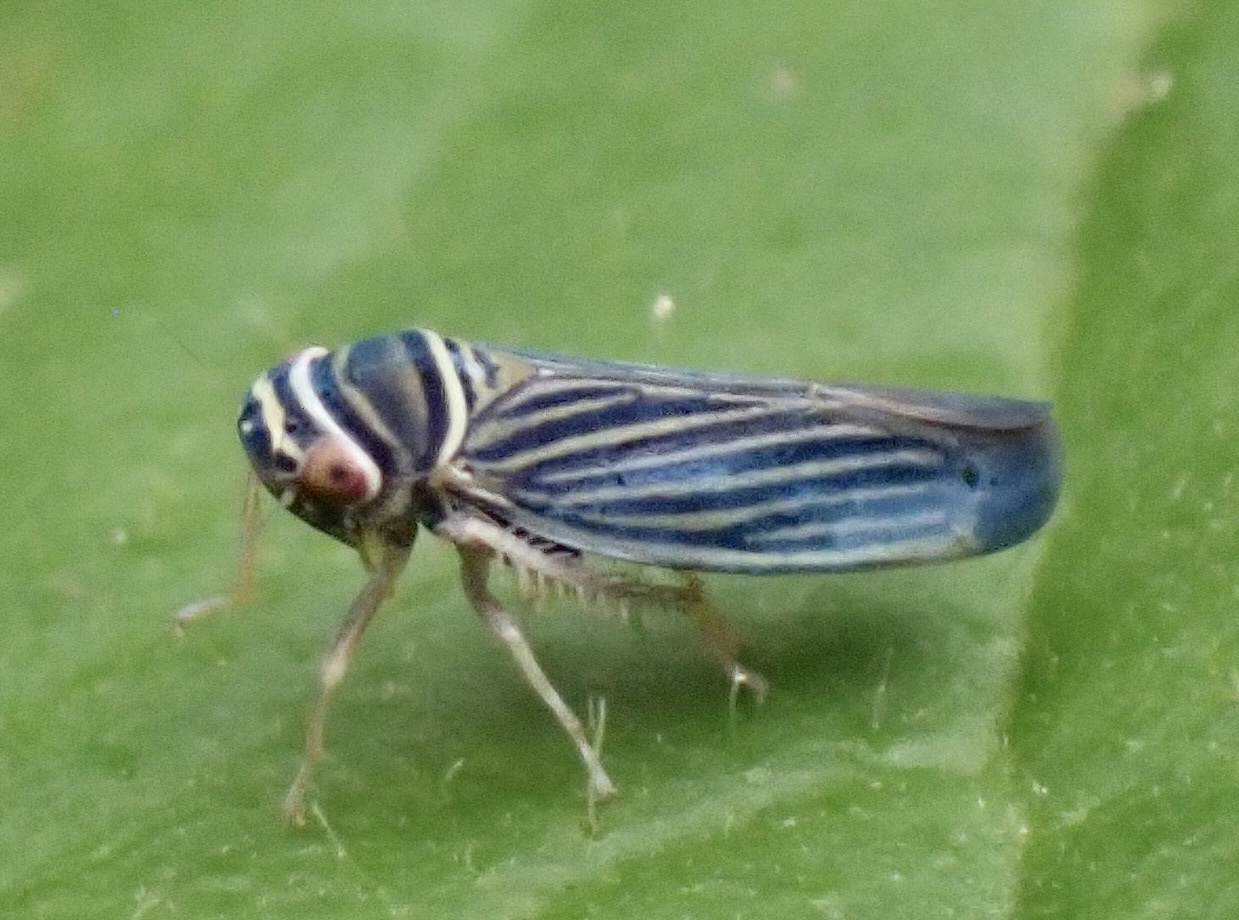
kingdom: Animalia
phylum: Arthropoda
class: Insecta
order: Hemiptera
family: Cicadellidae
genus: Tylozygus
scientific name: Tylozygus bifidus
